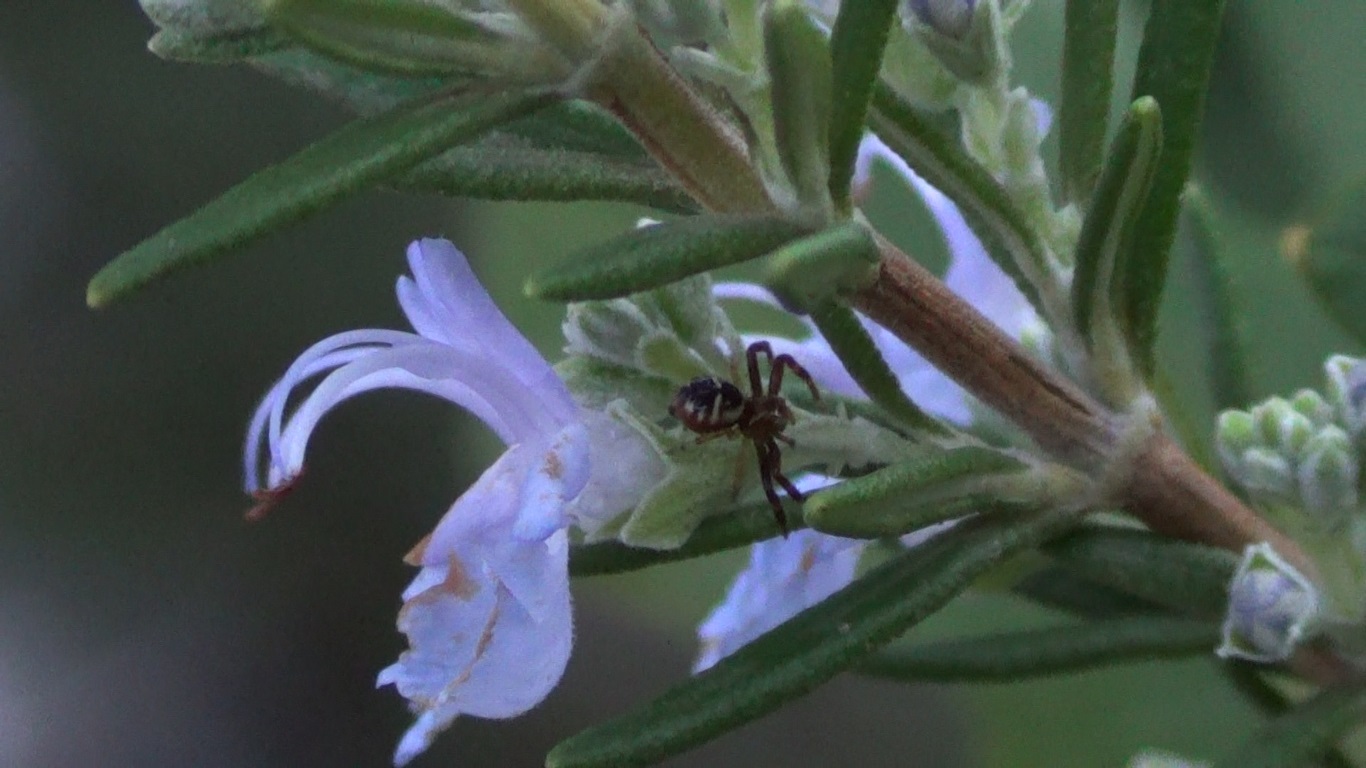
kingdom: Animalia
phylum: Arthropoda
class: Arachnida
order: Araneae
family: Thomisidae
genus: Synema
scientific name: Synema globosum
